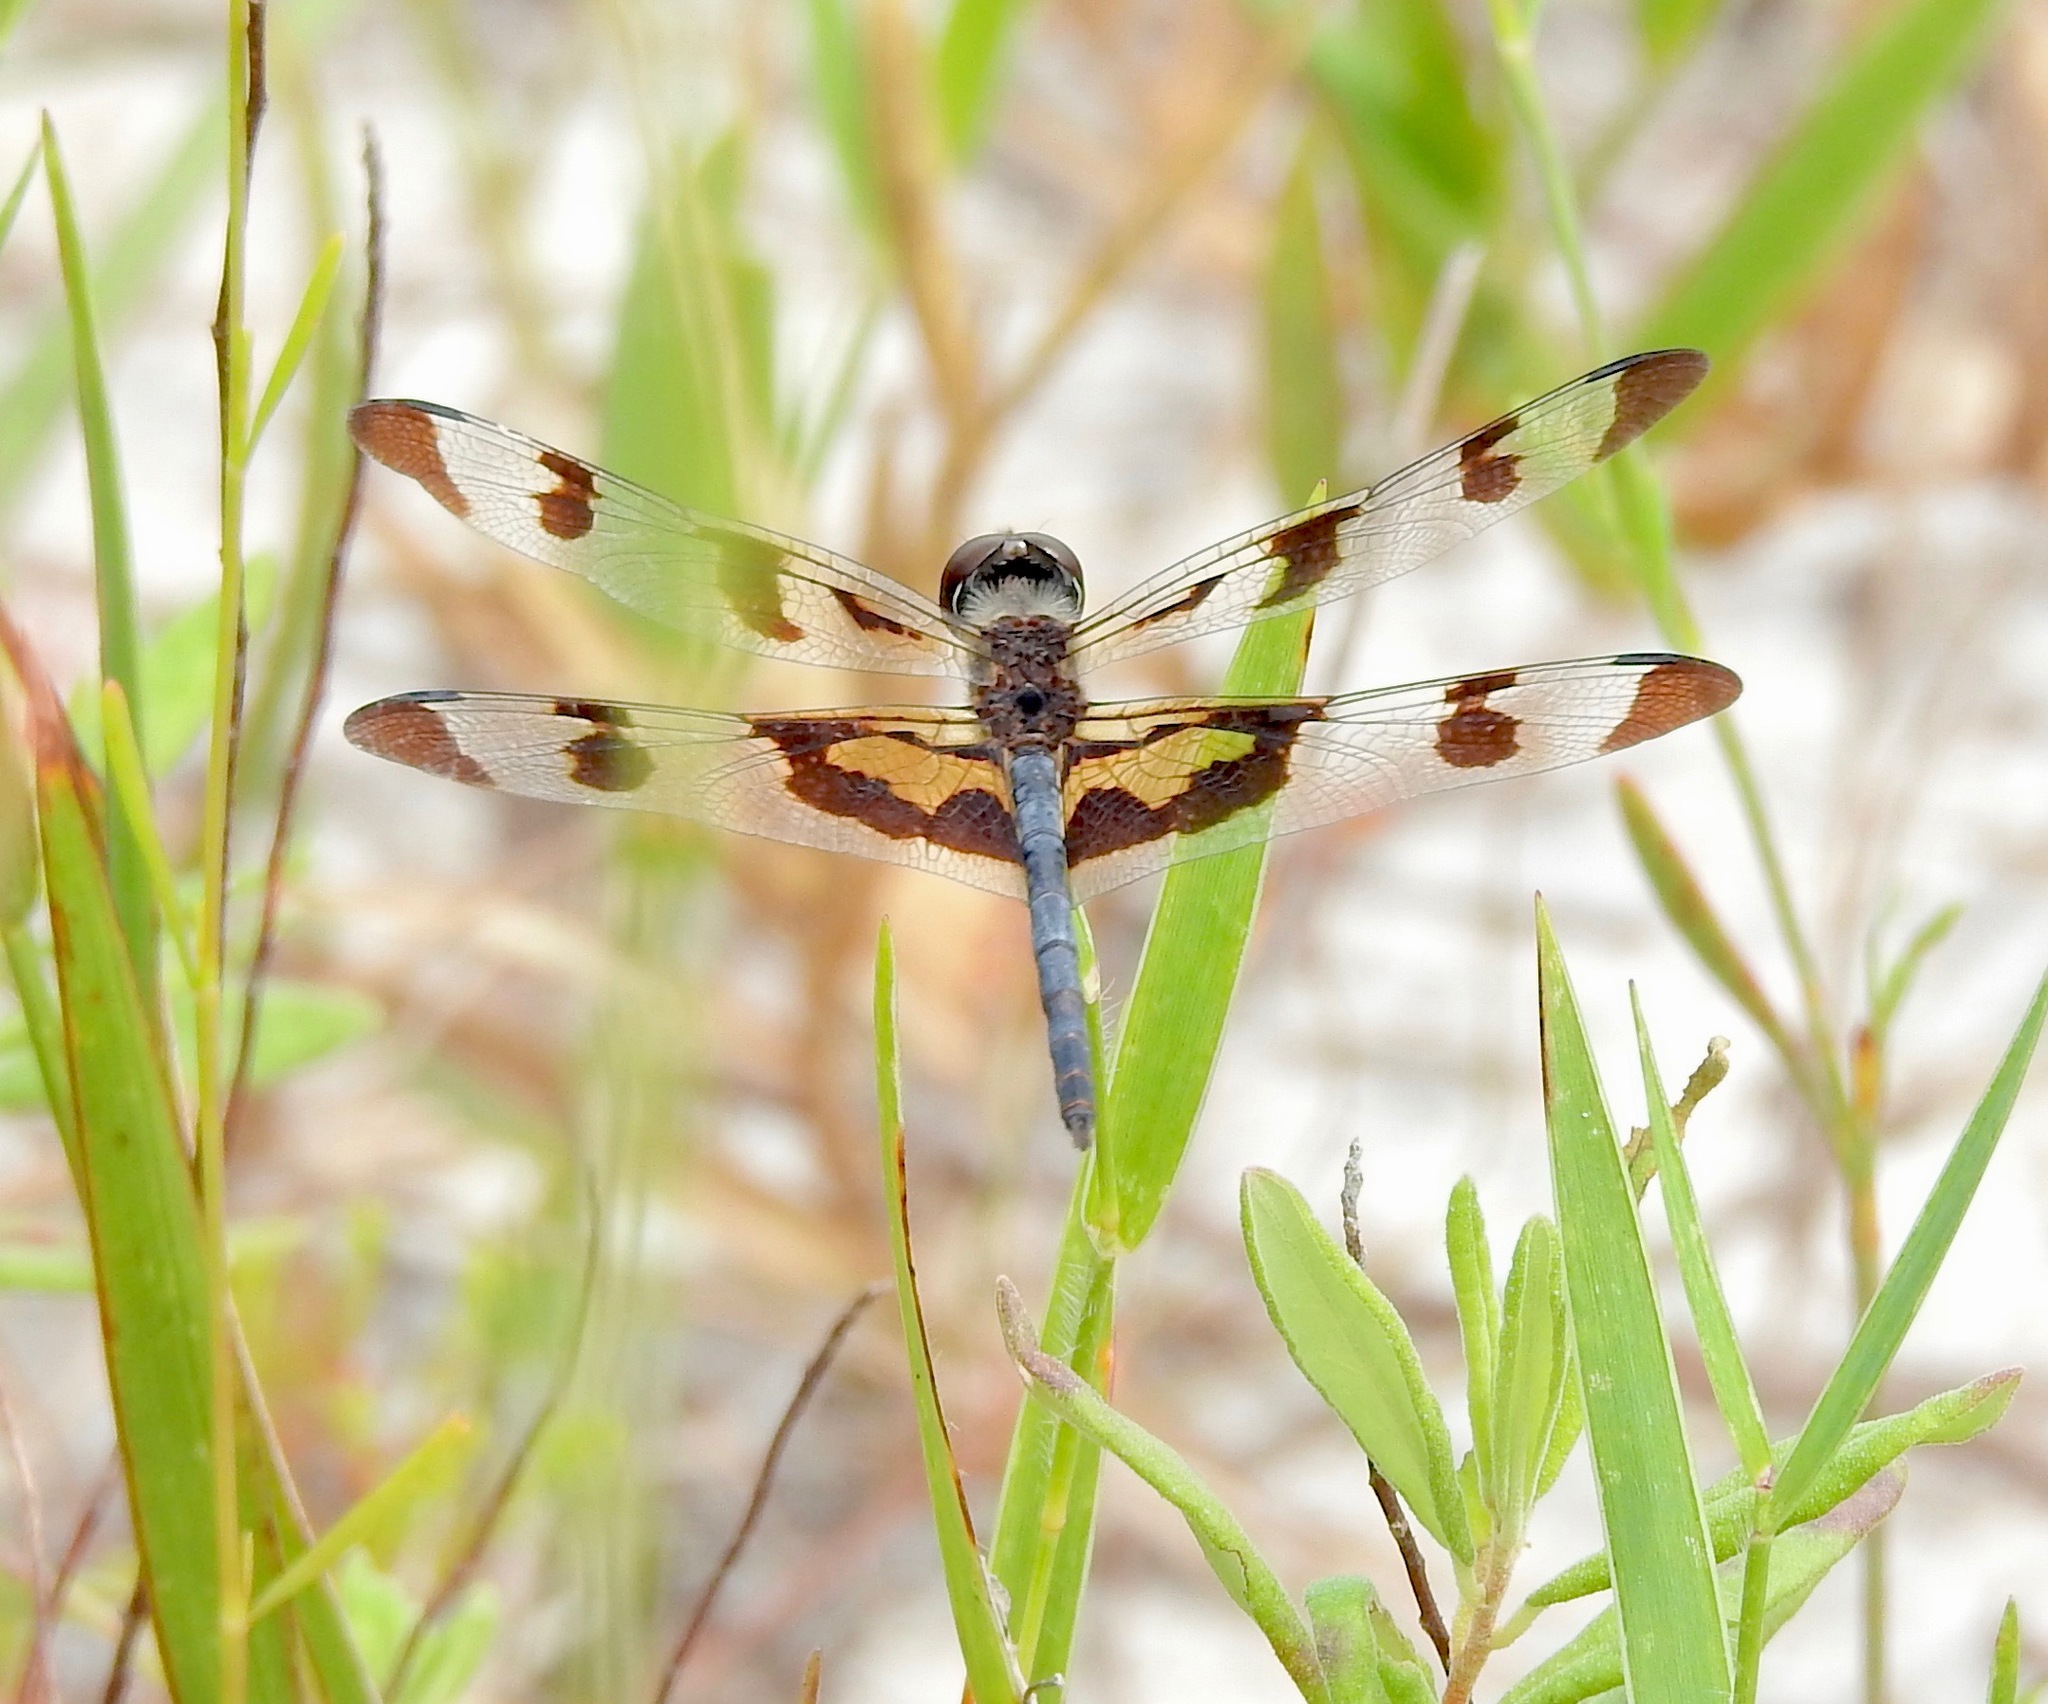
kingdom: Animalia
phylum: Arthropoda
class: Insecta
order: Odonata
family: Libellulidae
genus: Celithemis
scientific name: Celithemis fasciata
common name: Banded pennant
